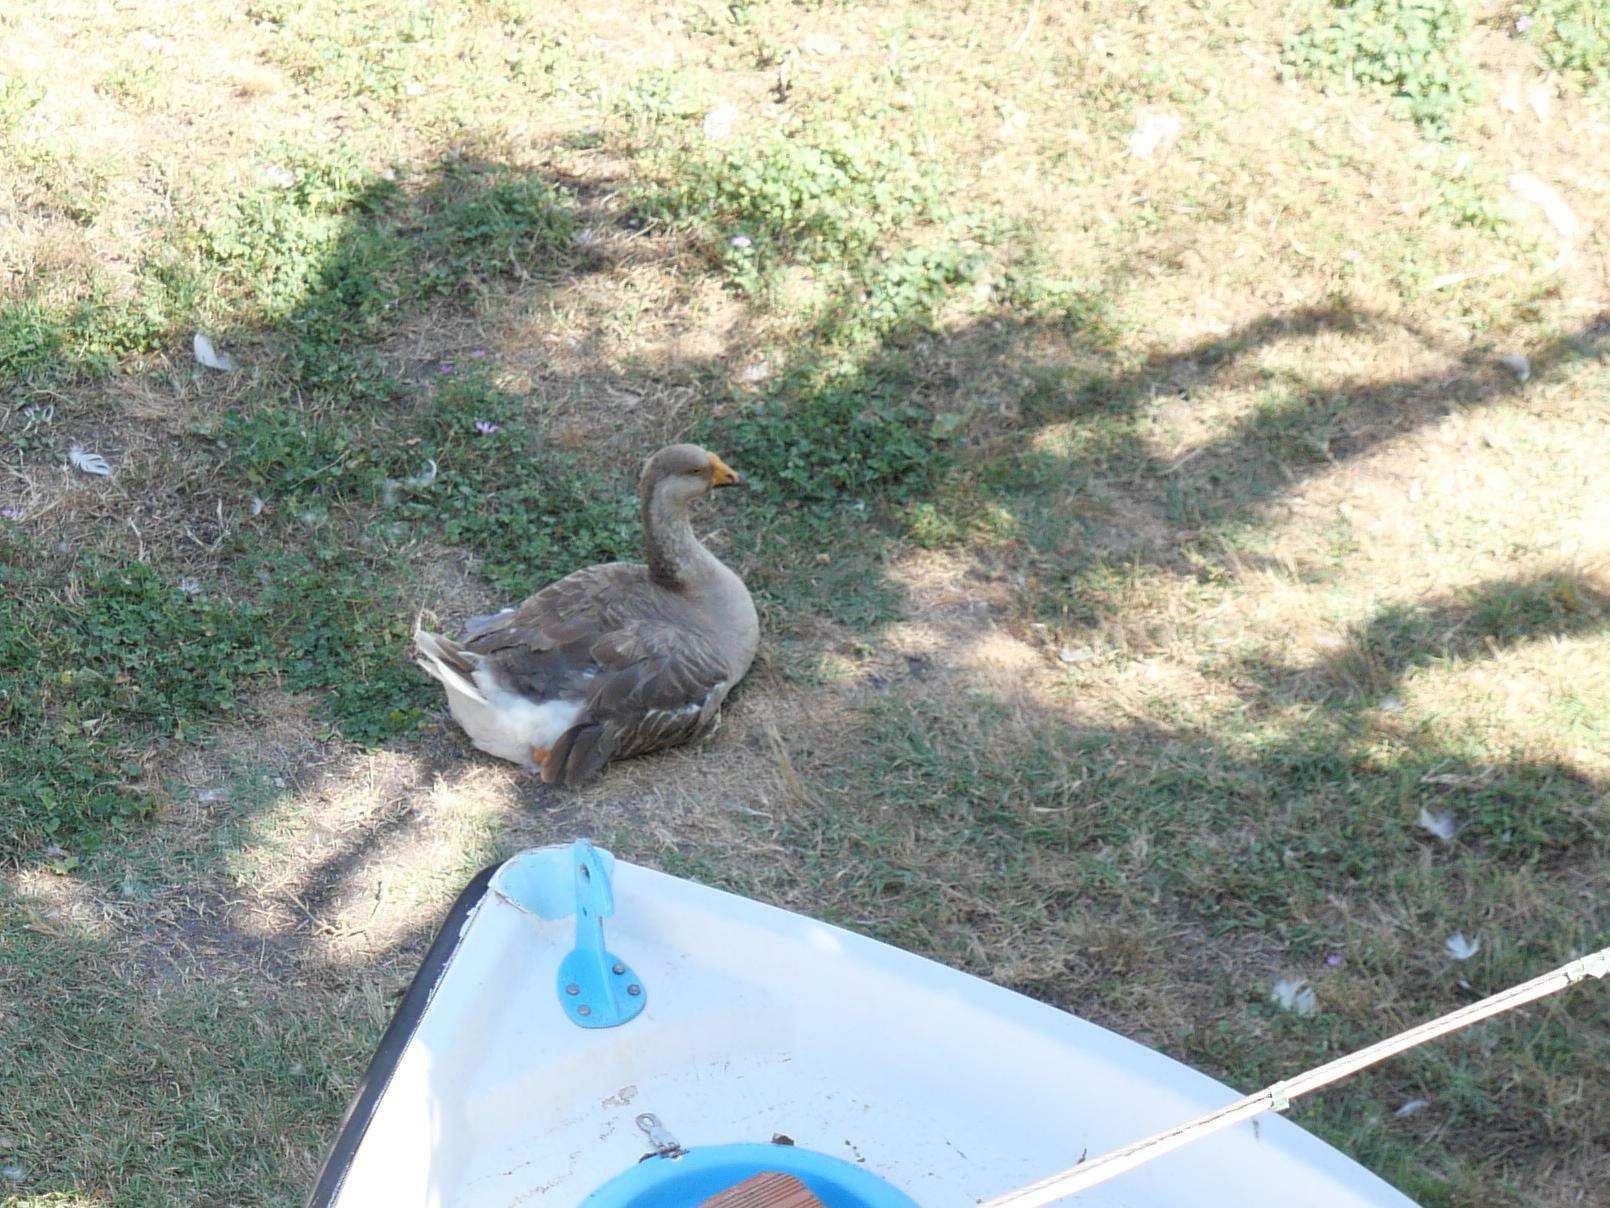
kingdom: Animalia
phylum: Chordata
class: Aves
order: Anseriformes
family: Anatidae
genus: Anser
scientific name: Anser
